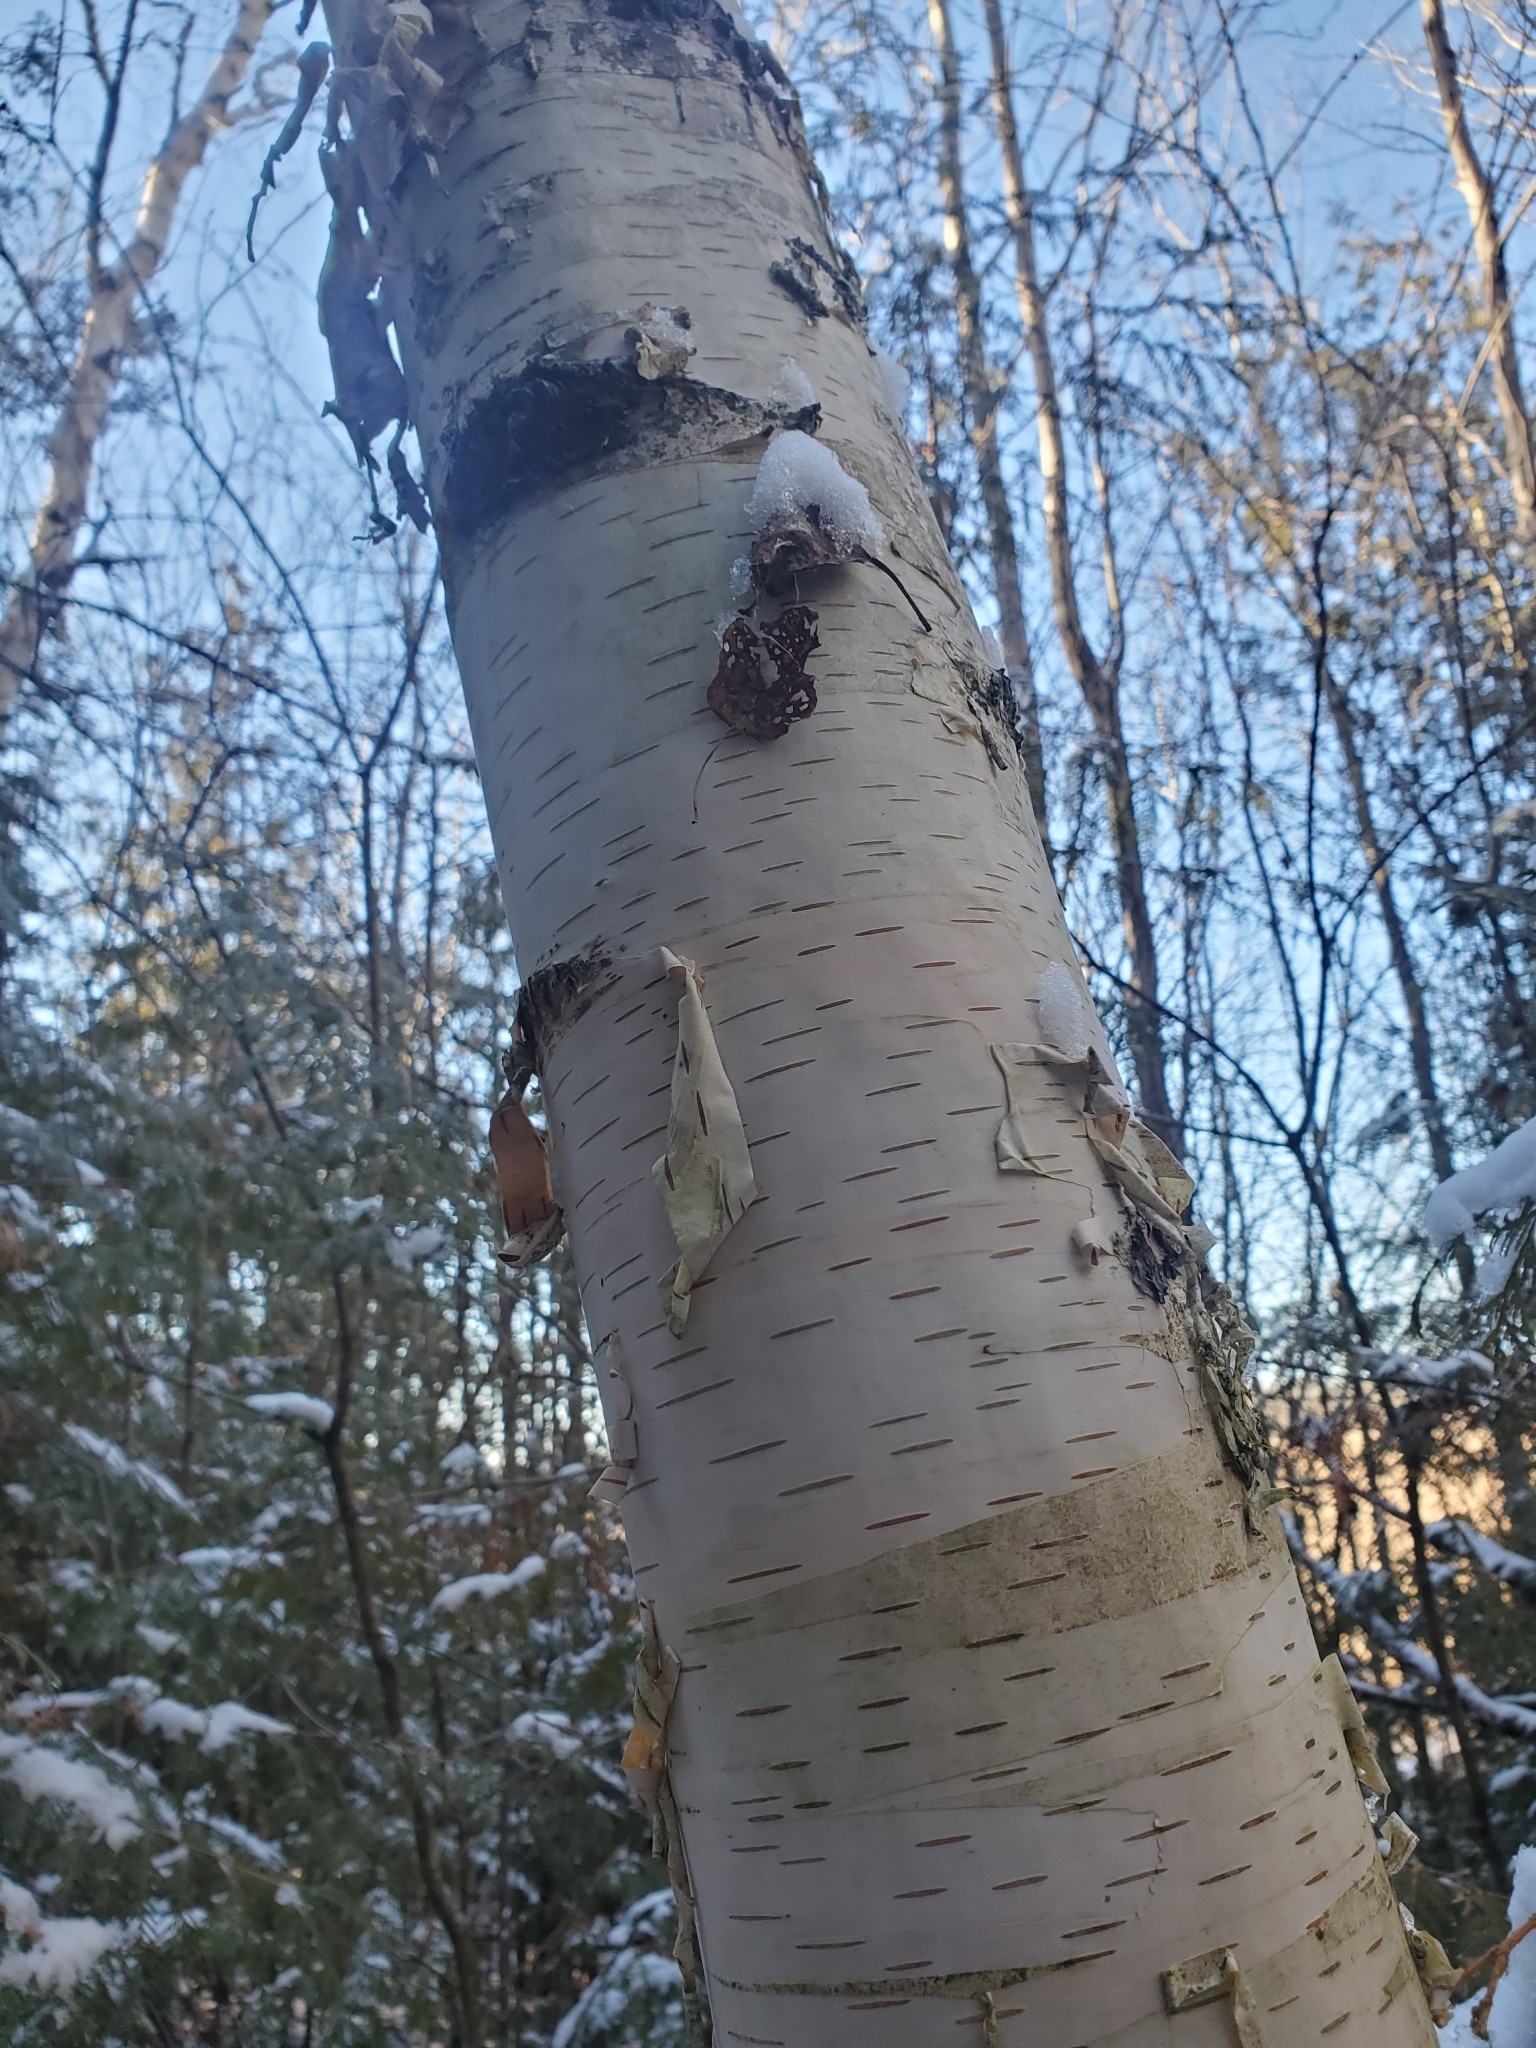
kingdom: Plantae
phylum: Tracheophyta
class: Magnoliopsida
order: Fagales
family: Betulaceae
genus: Betula
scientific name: Betula papyrifera
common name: Paper birch
